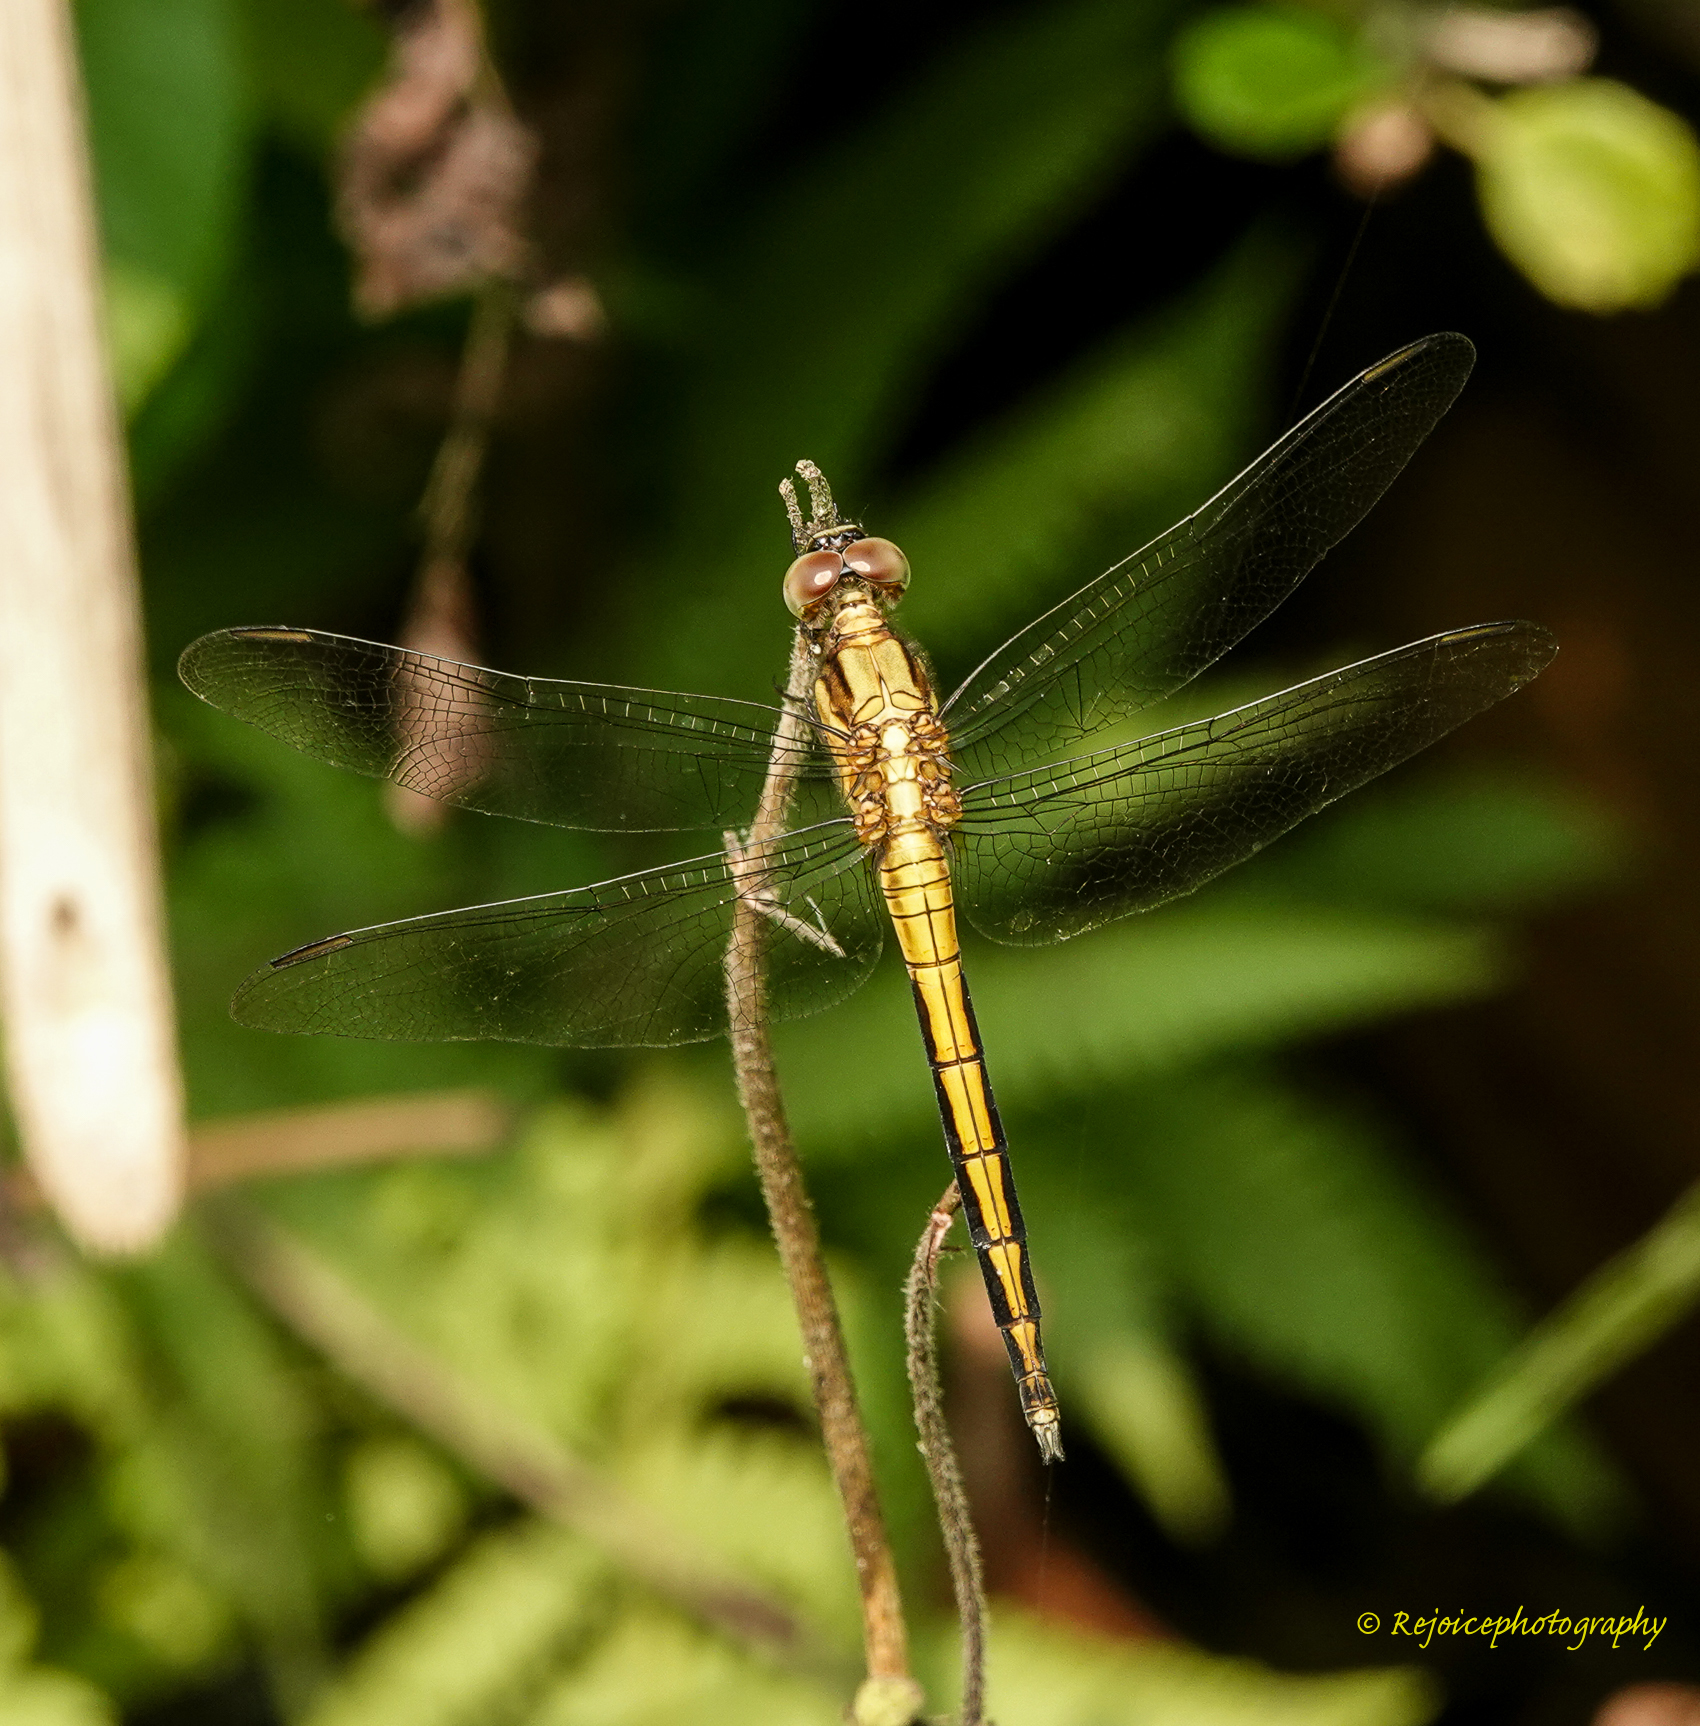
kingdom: Animalia
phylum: Arthropoda
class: Insecta
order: Odonata
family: Libellulidae
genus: Orthetrum
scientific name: Orthetrum luzonicum
